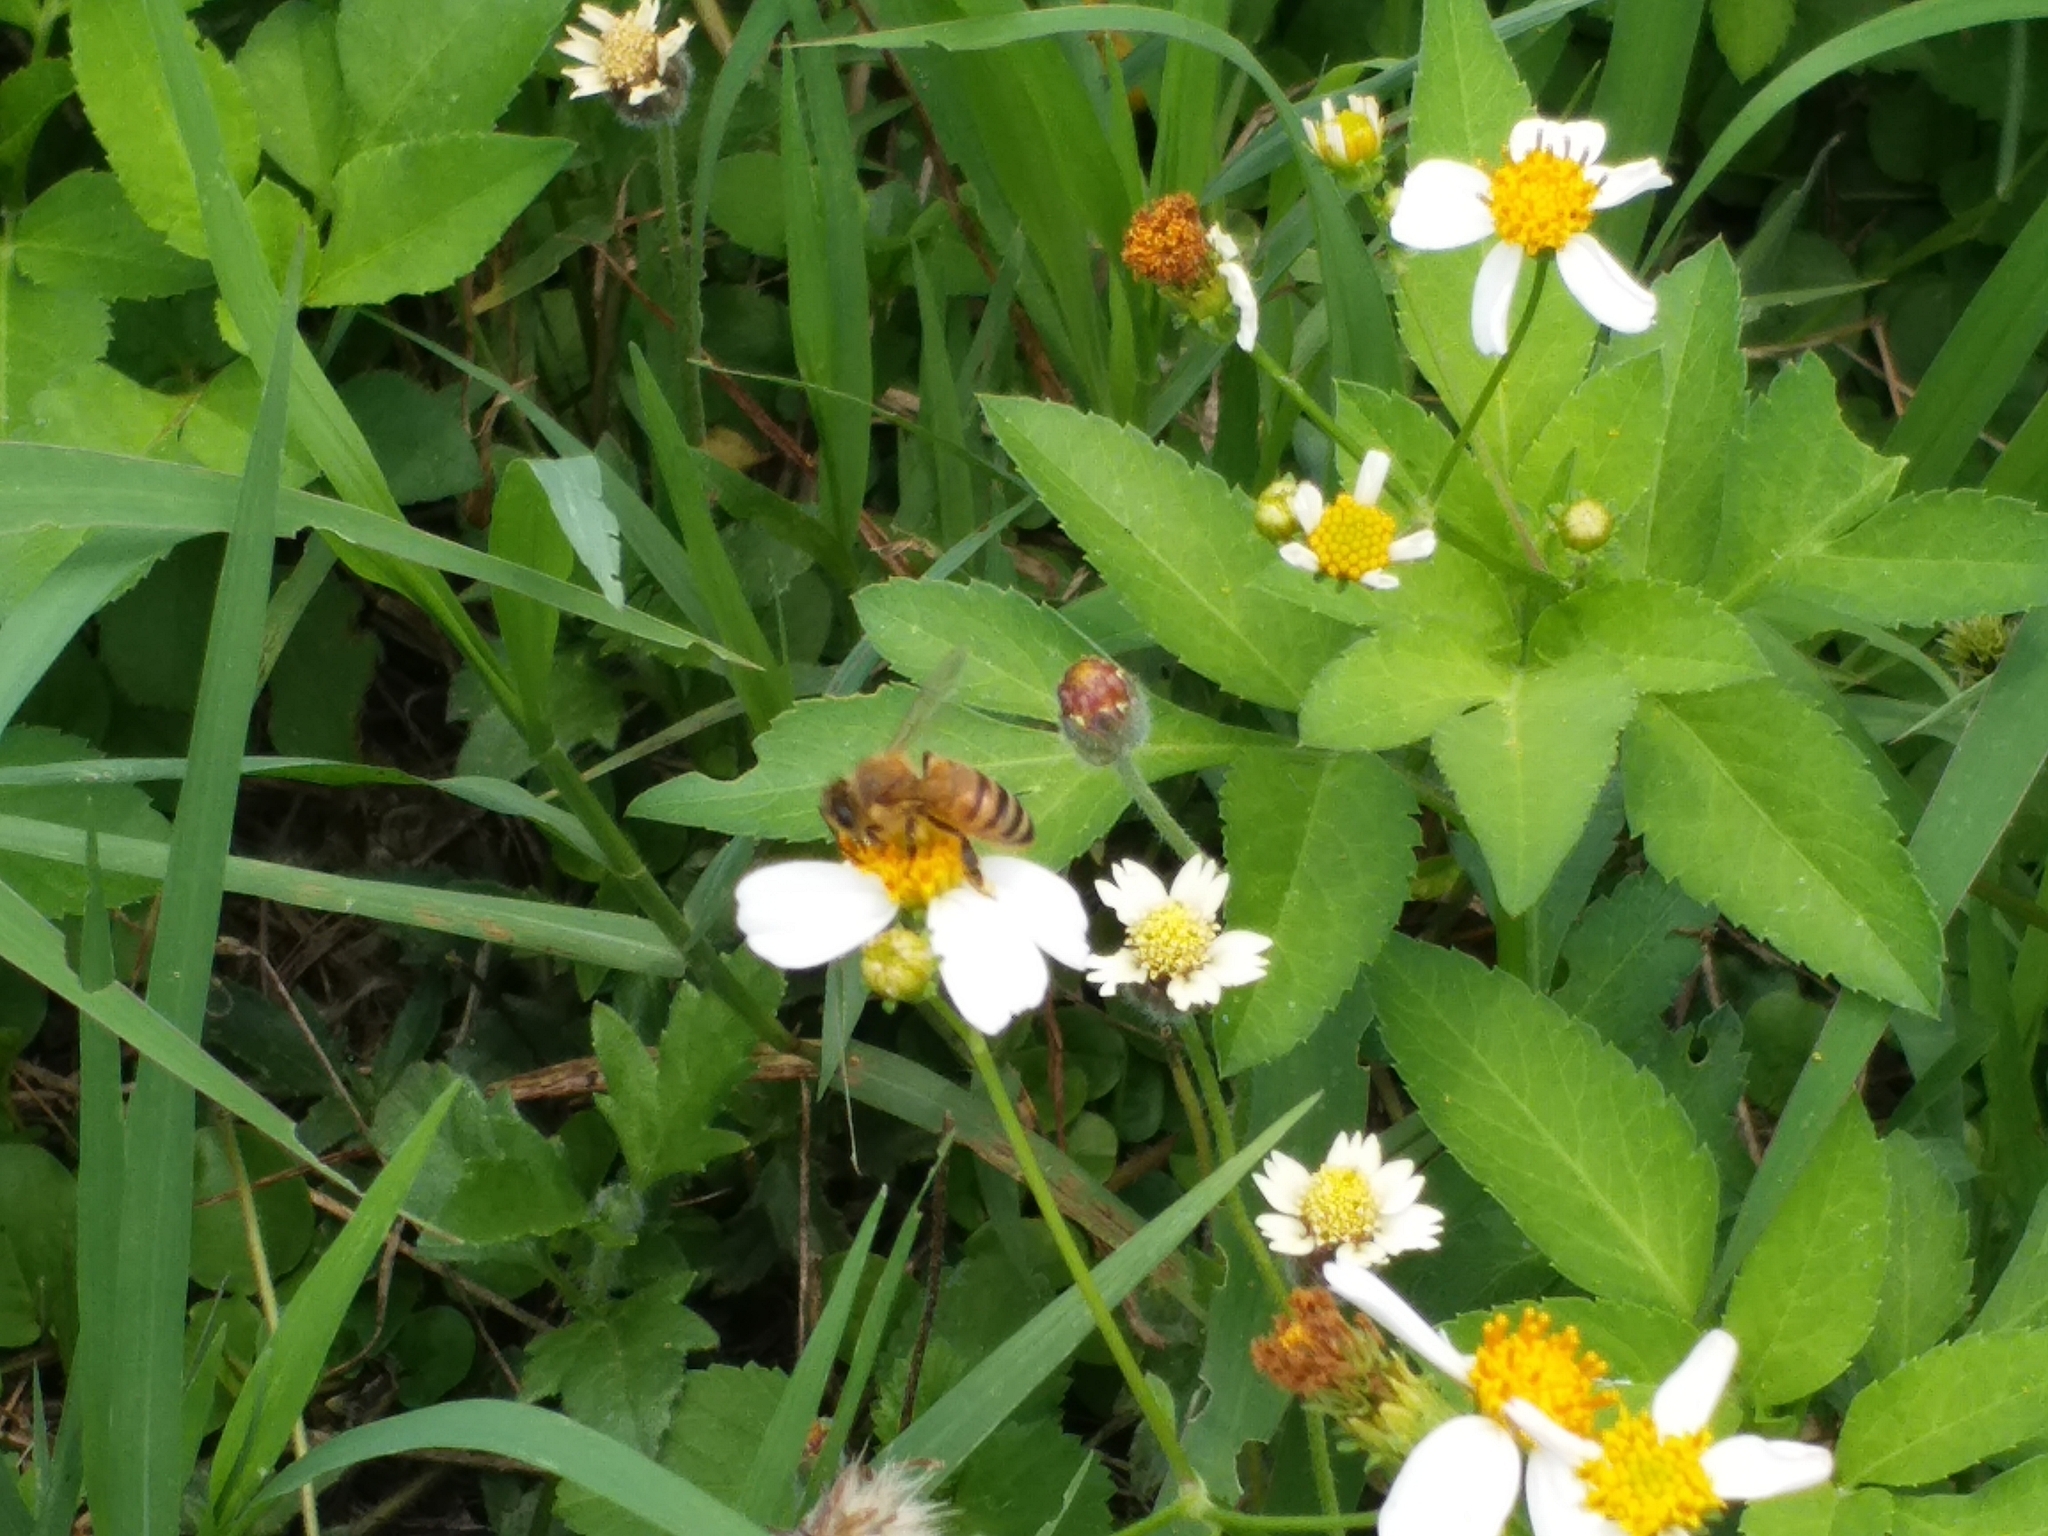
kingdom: Animalia
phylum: Arthropoda
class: Insecta
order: Hymenoptera
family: Apidae
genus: Apis
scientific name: Apis mellifera
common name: Honey bee
